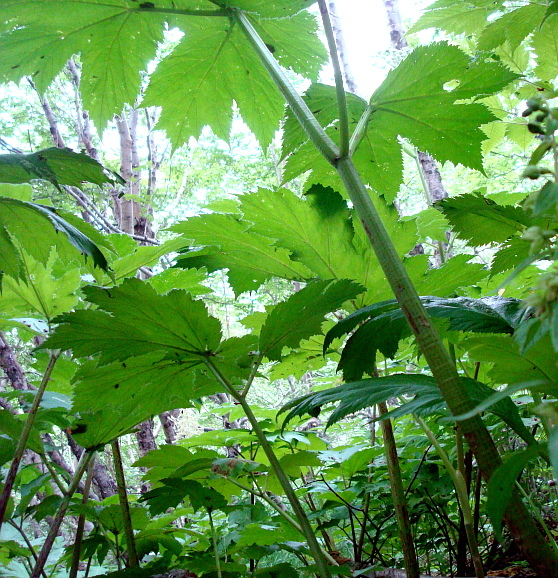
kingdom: Plantae
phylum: Tracheophyta
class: Magnoliopsida
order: Apiales
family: Apiaceae
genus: Heracleum
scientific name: Heracleum maximum
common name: American cow parsnip
